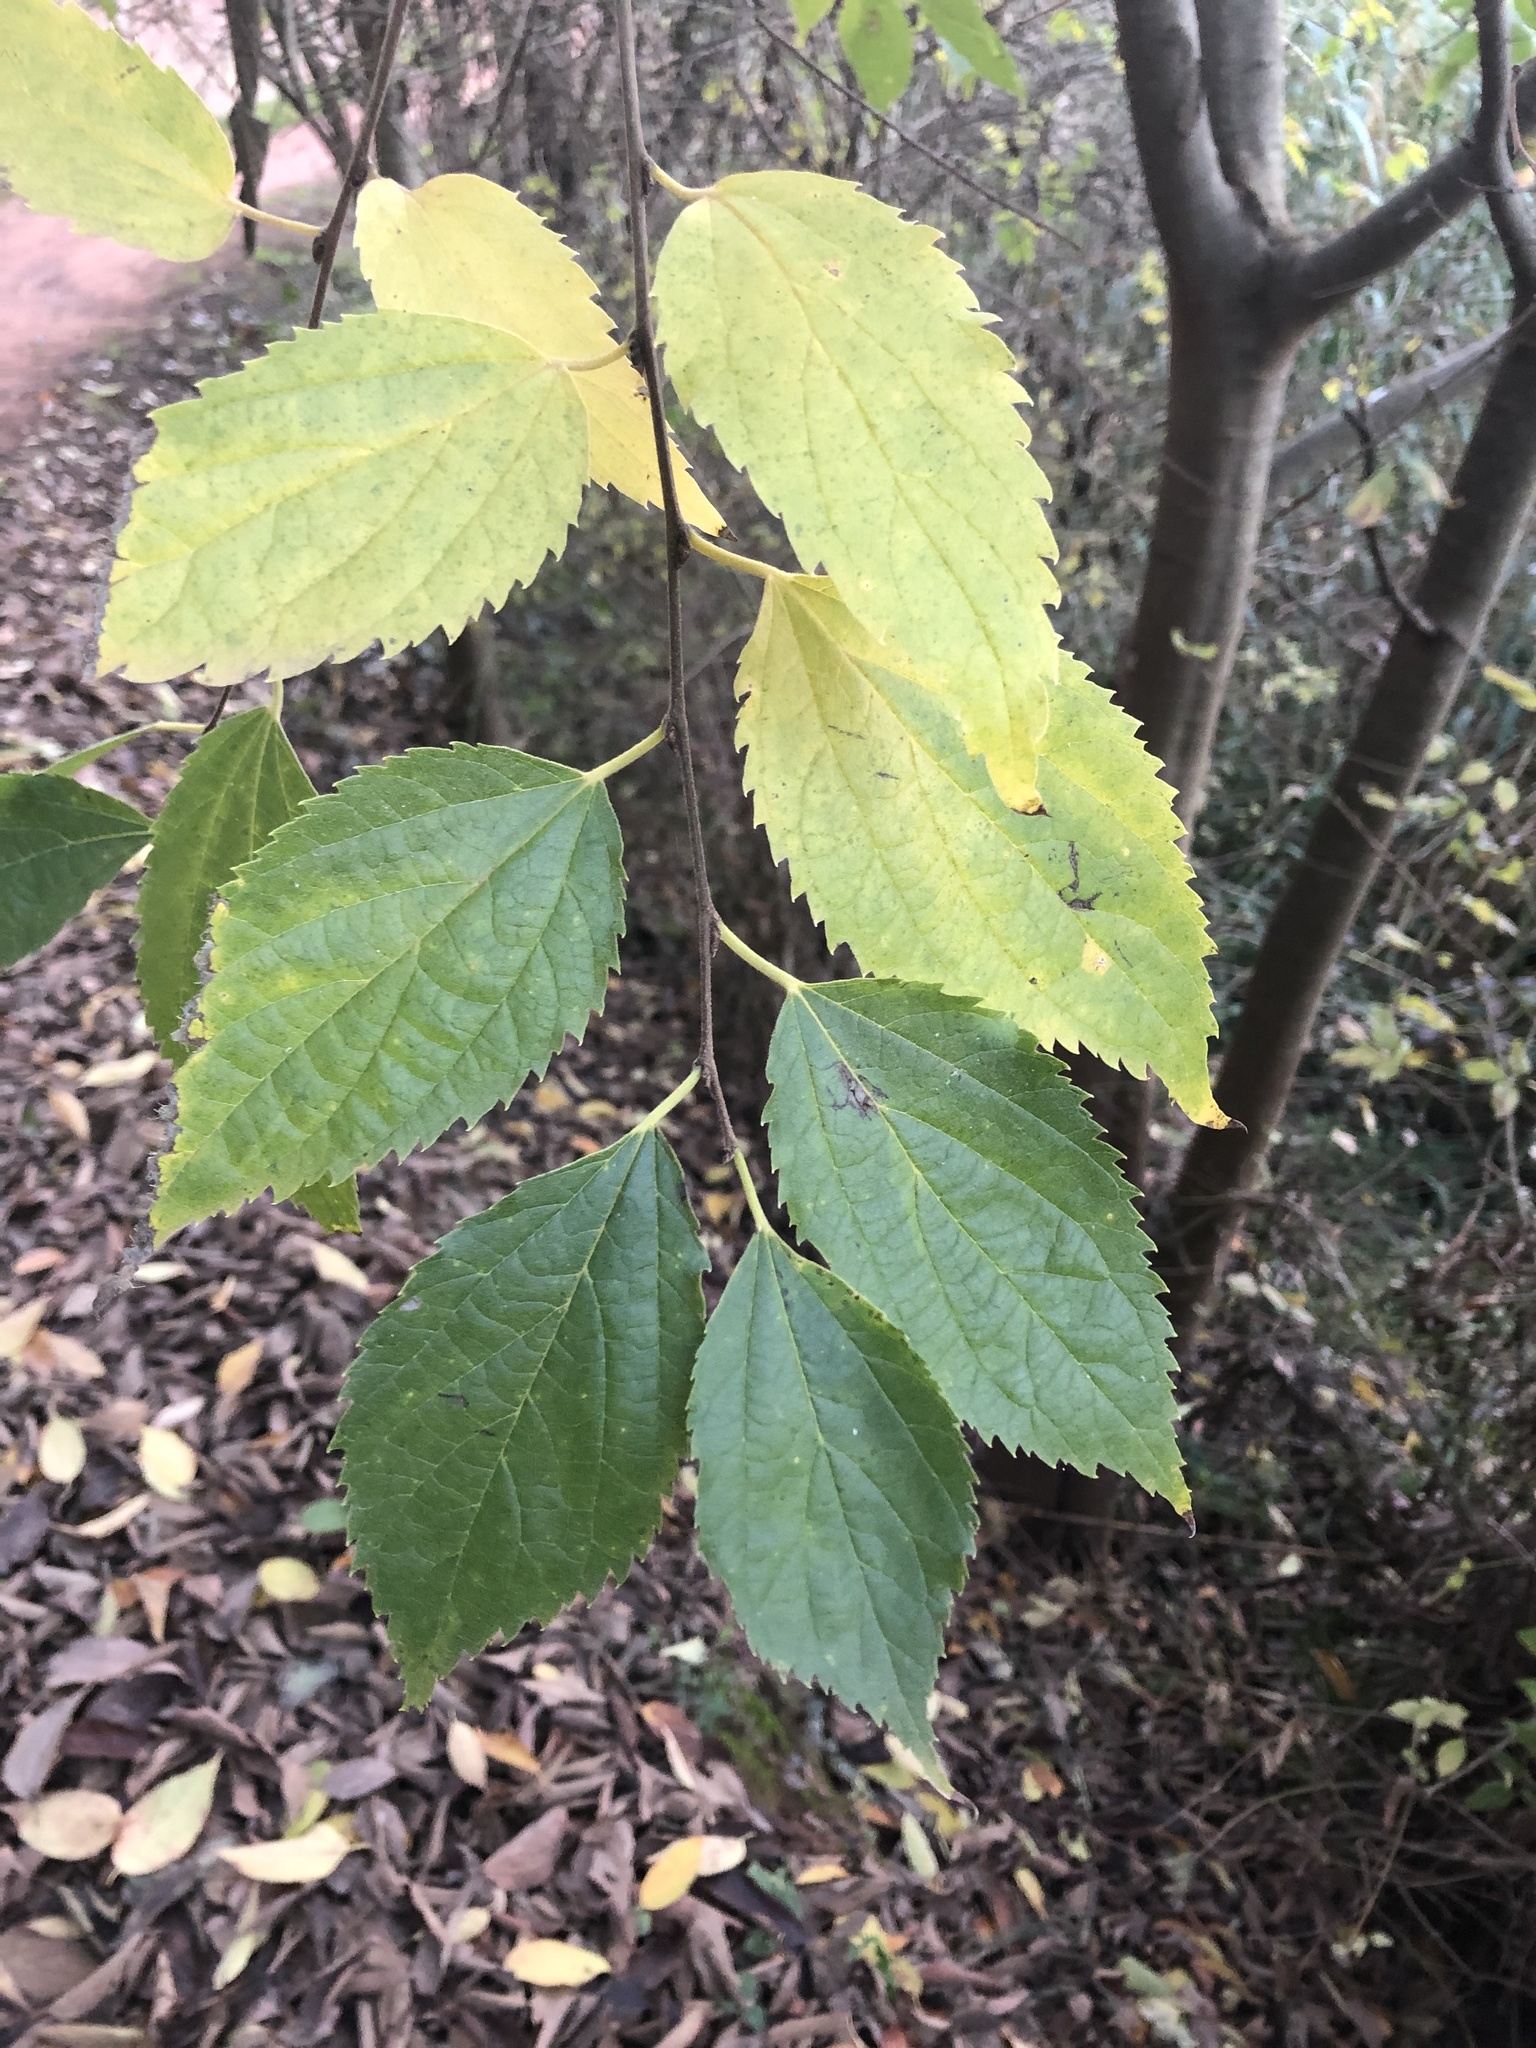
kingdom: Plantae
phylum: Tracheophyta
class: Magnoliopsida
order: Rosales
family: Cannabaceae
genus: Celtis
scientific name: Celtis australis
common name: European hackberry
